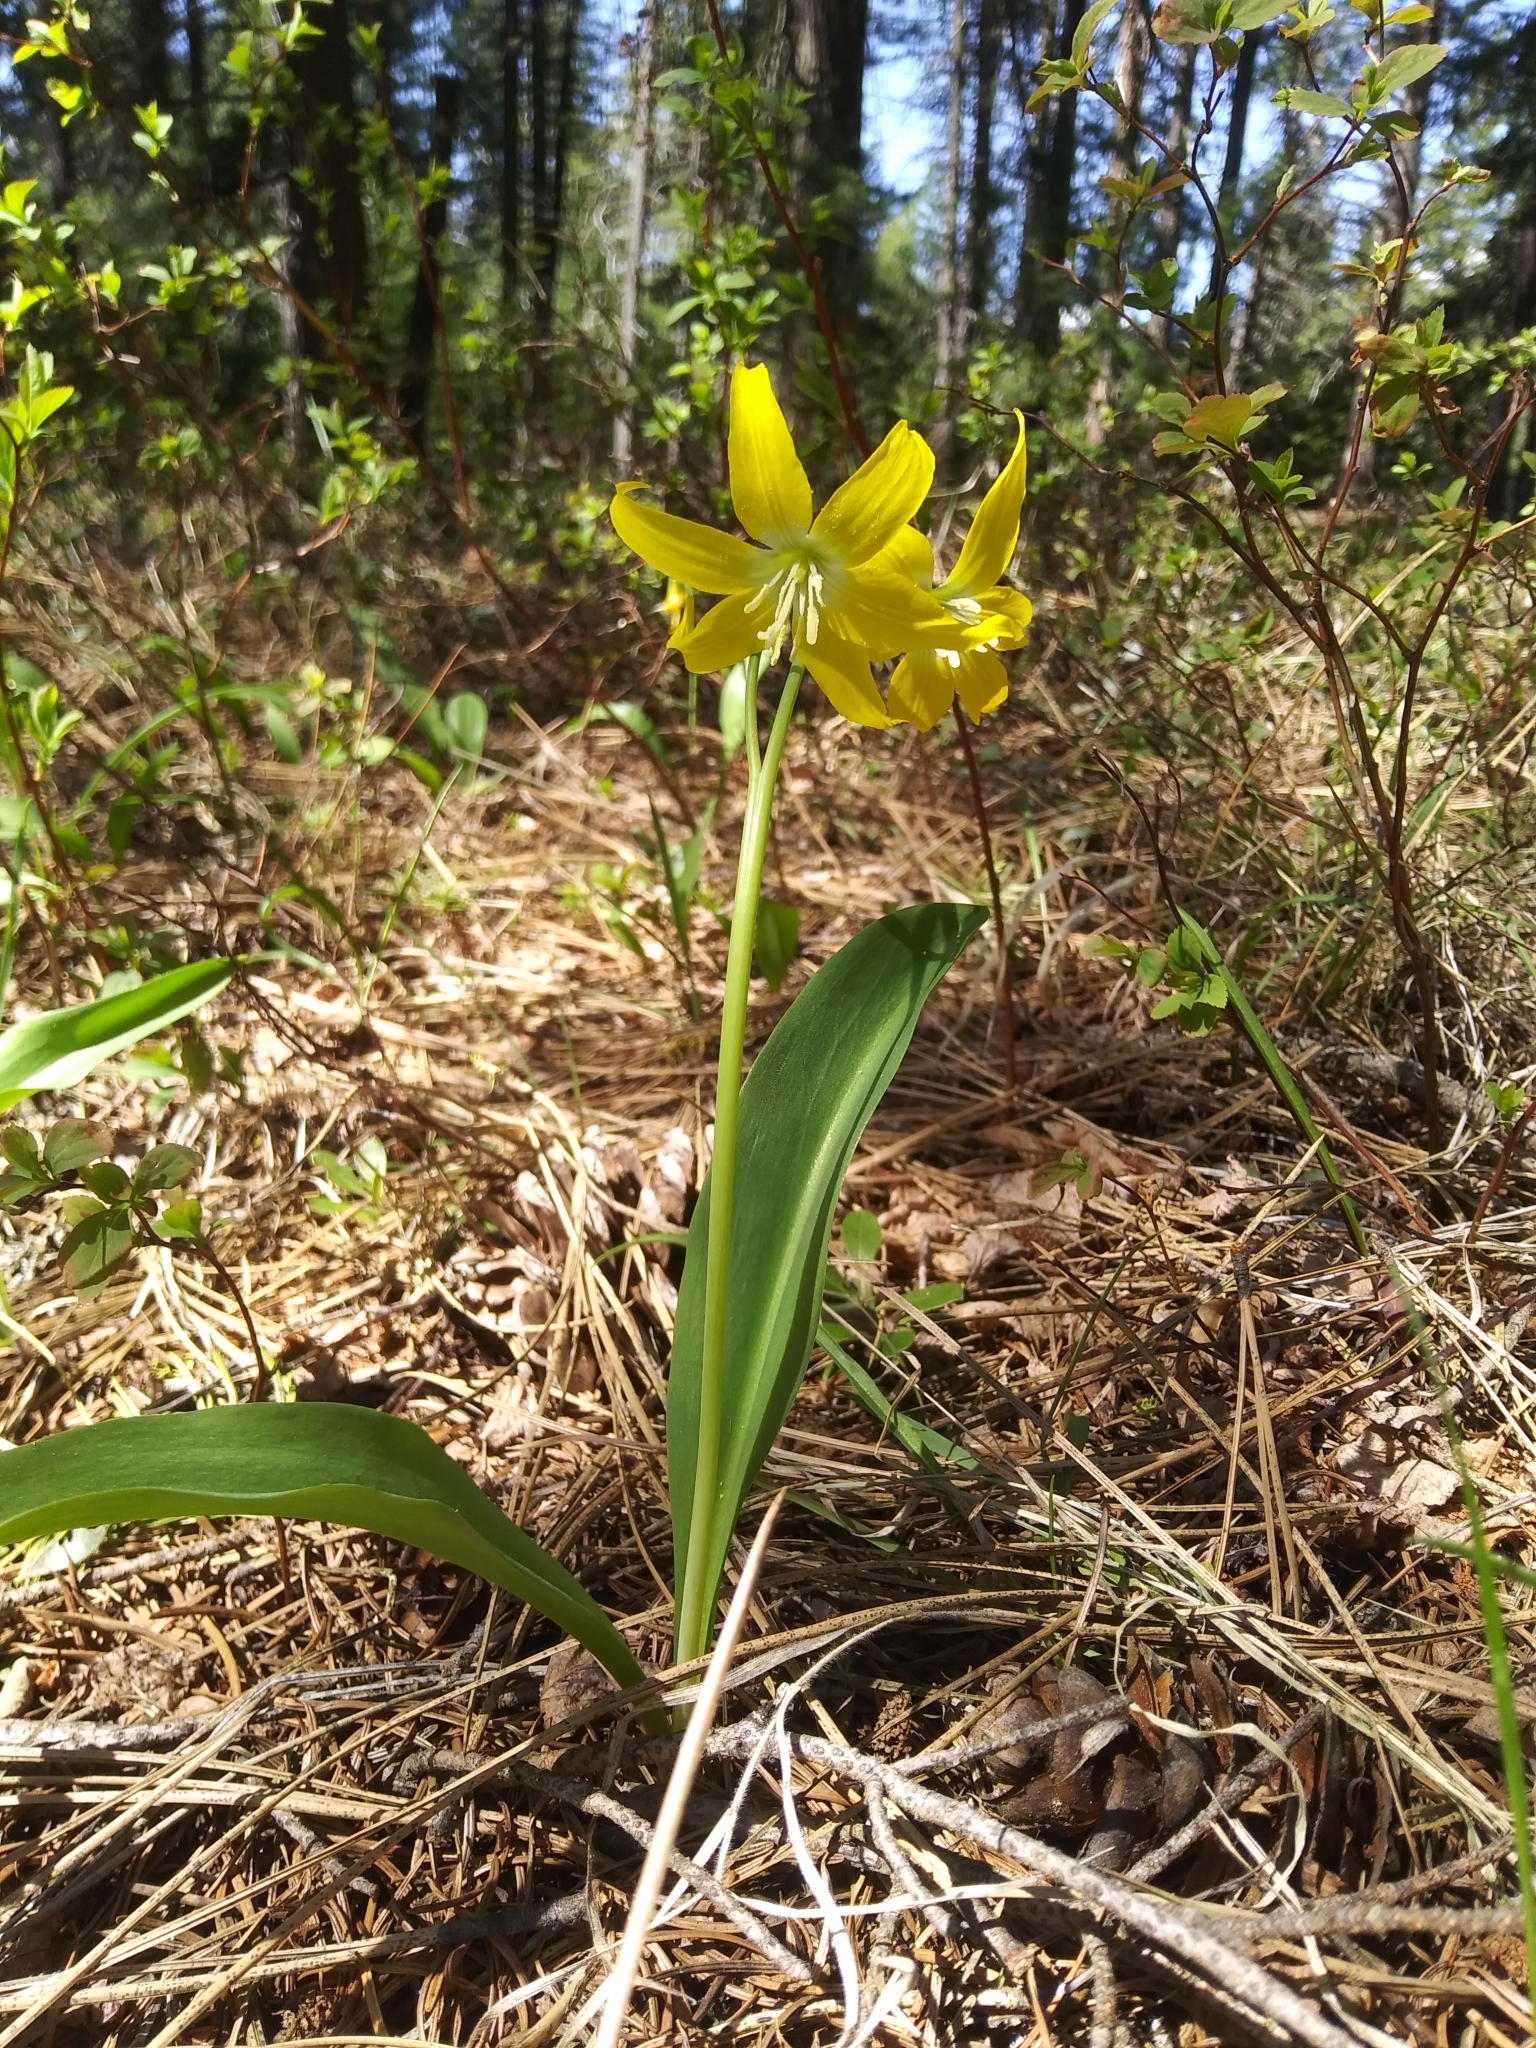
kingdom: Plantae
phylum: Tracheophyta
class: Liliopsida
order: Liliales
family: Liliaceae
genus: Erythronium
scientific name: Erythronium grandiflorum
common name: Avalanche-lily
